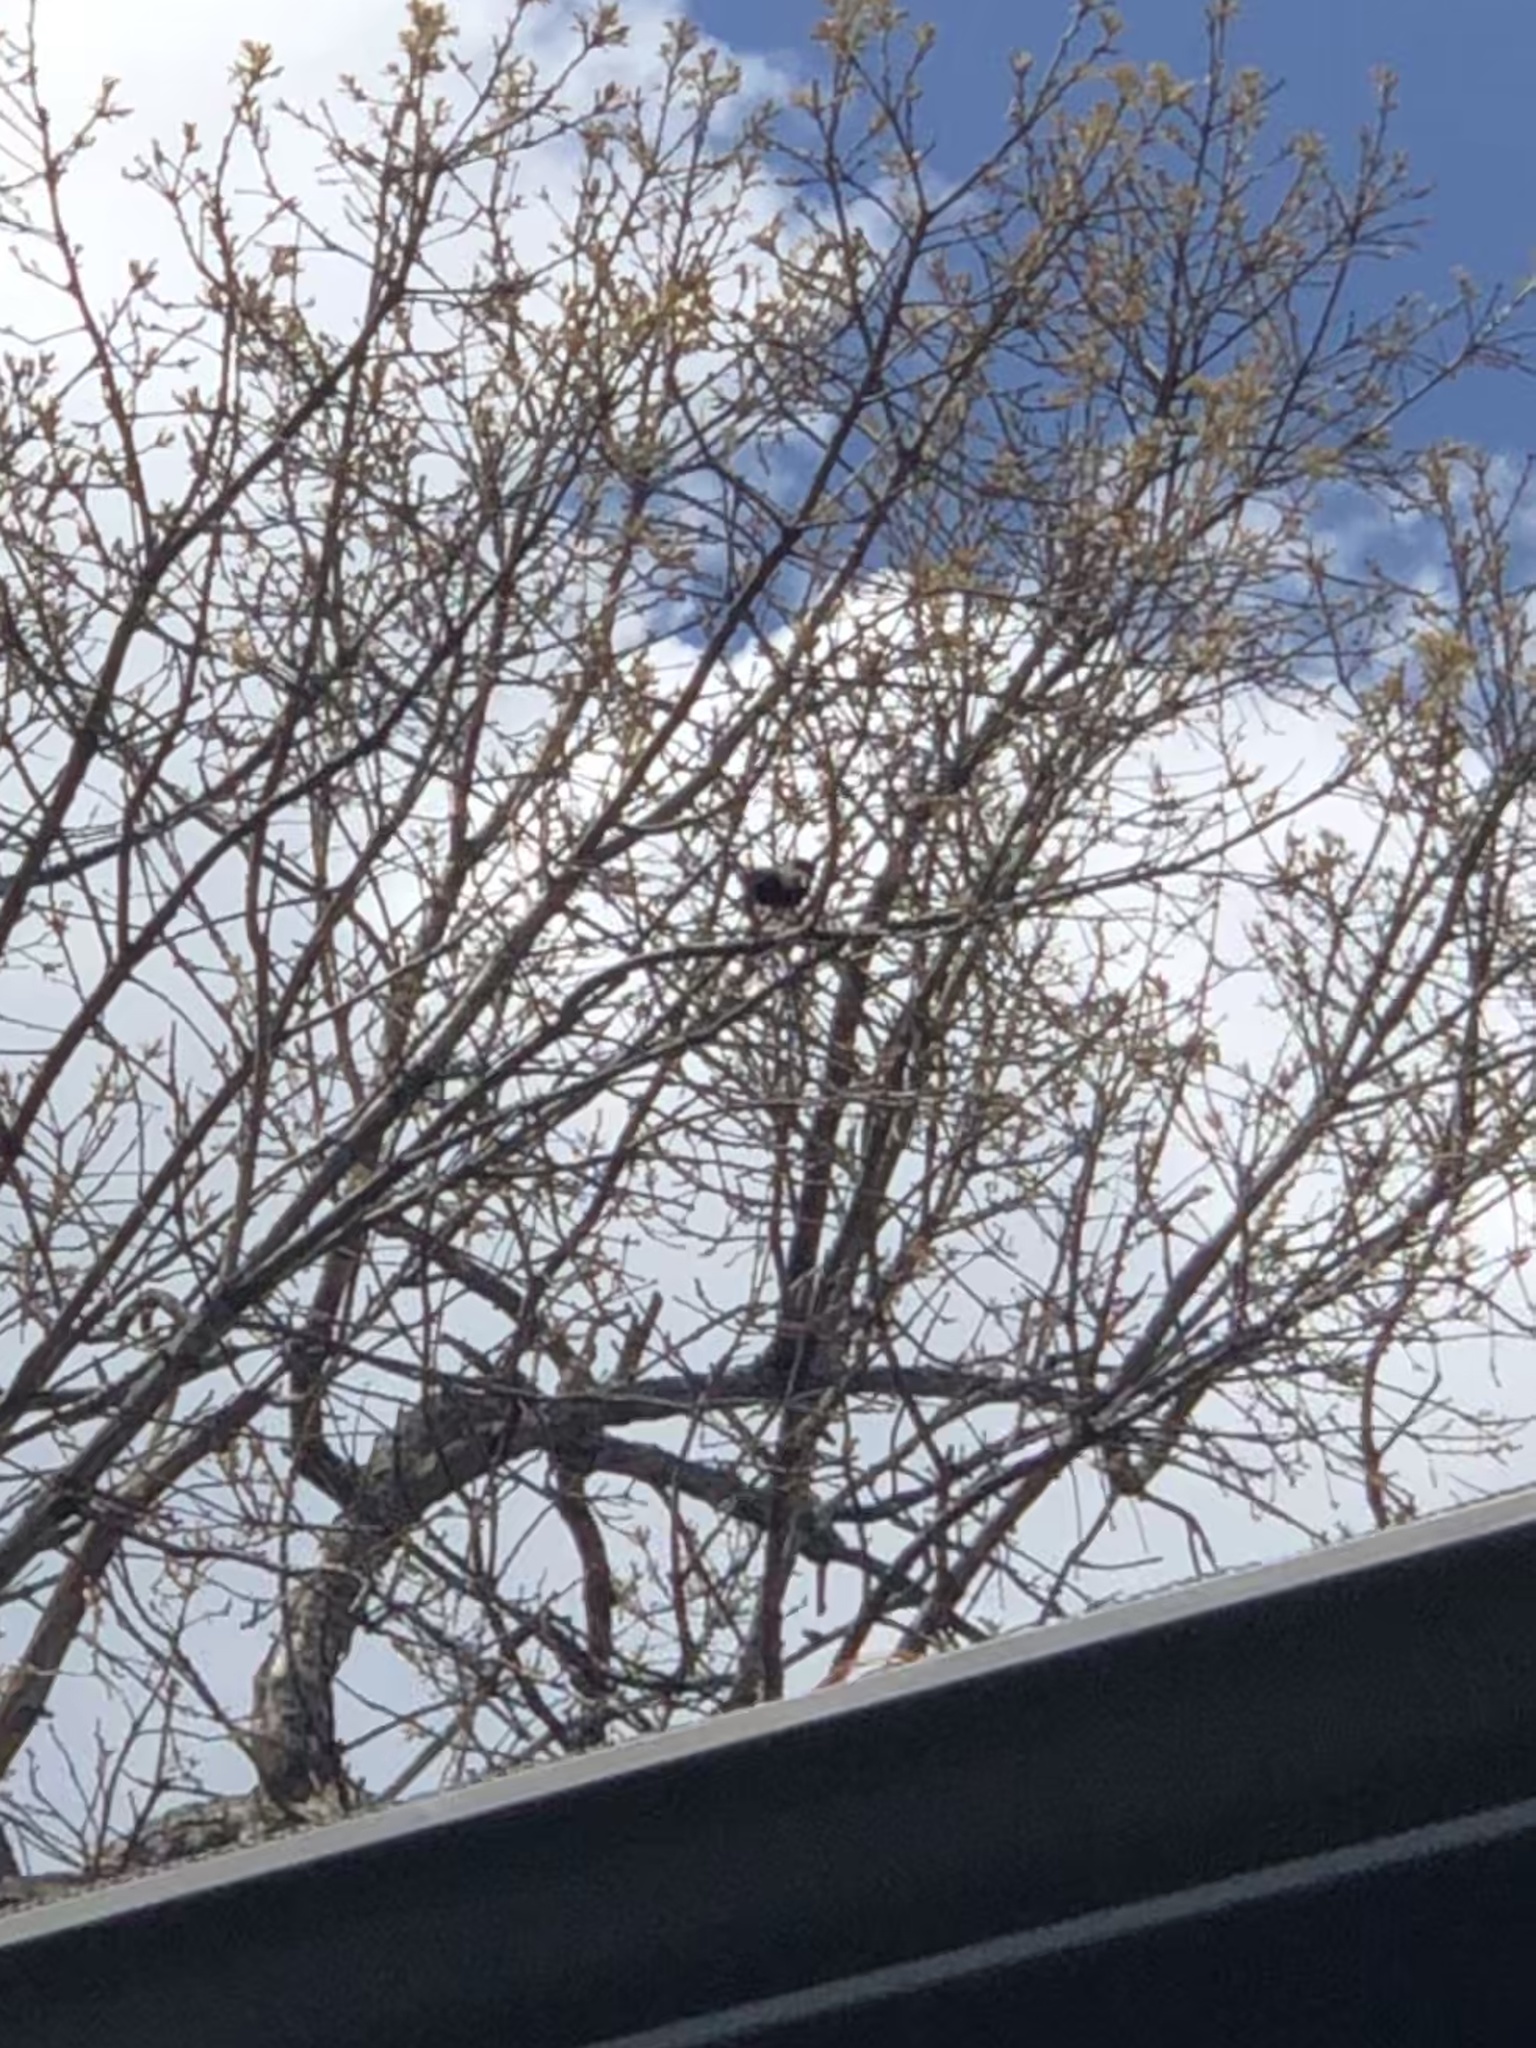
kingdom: Animalia
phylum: Chordata
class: Aves
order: Passeriformes
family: Icteridae
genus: Molothrus
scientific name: Molothrus ater
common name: Brown-headed cowbird
